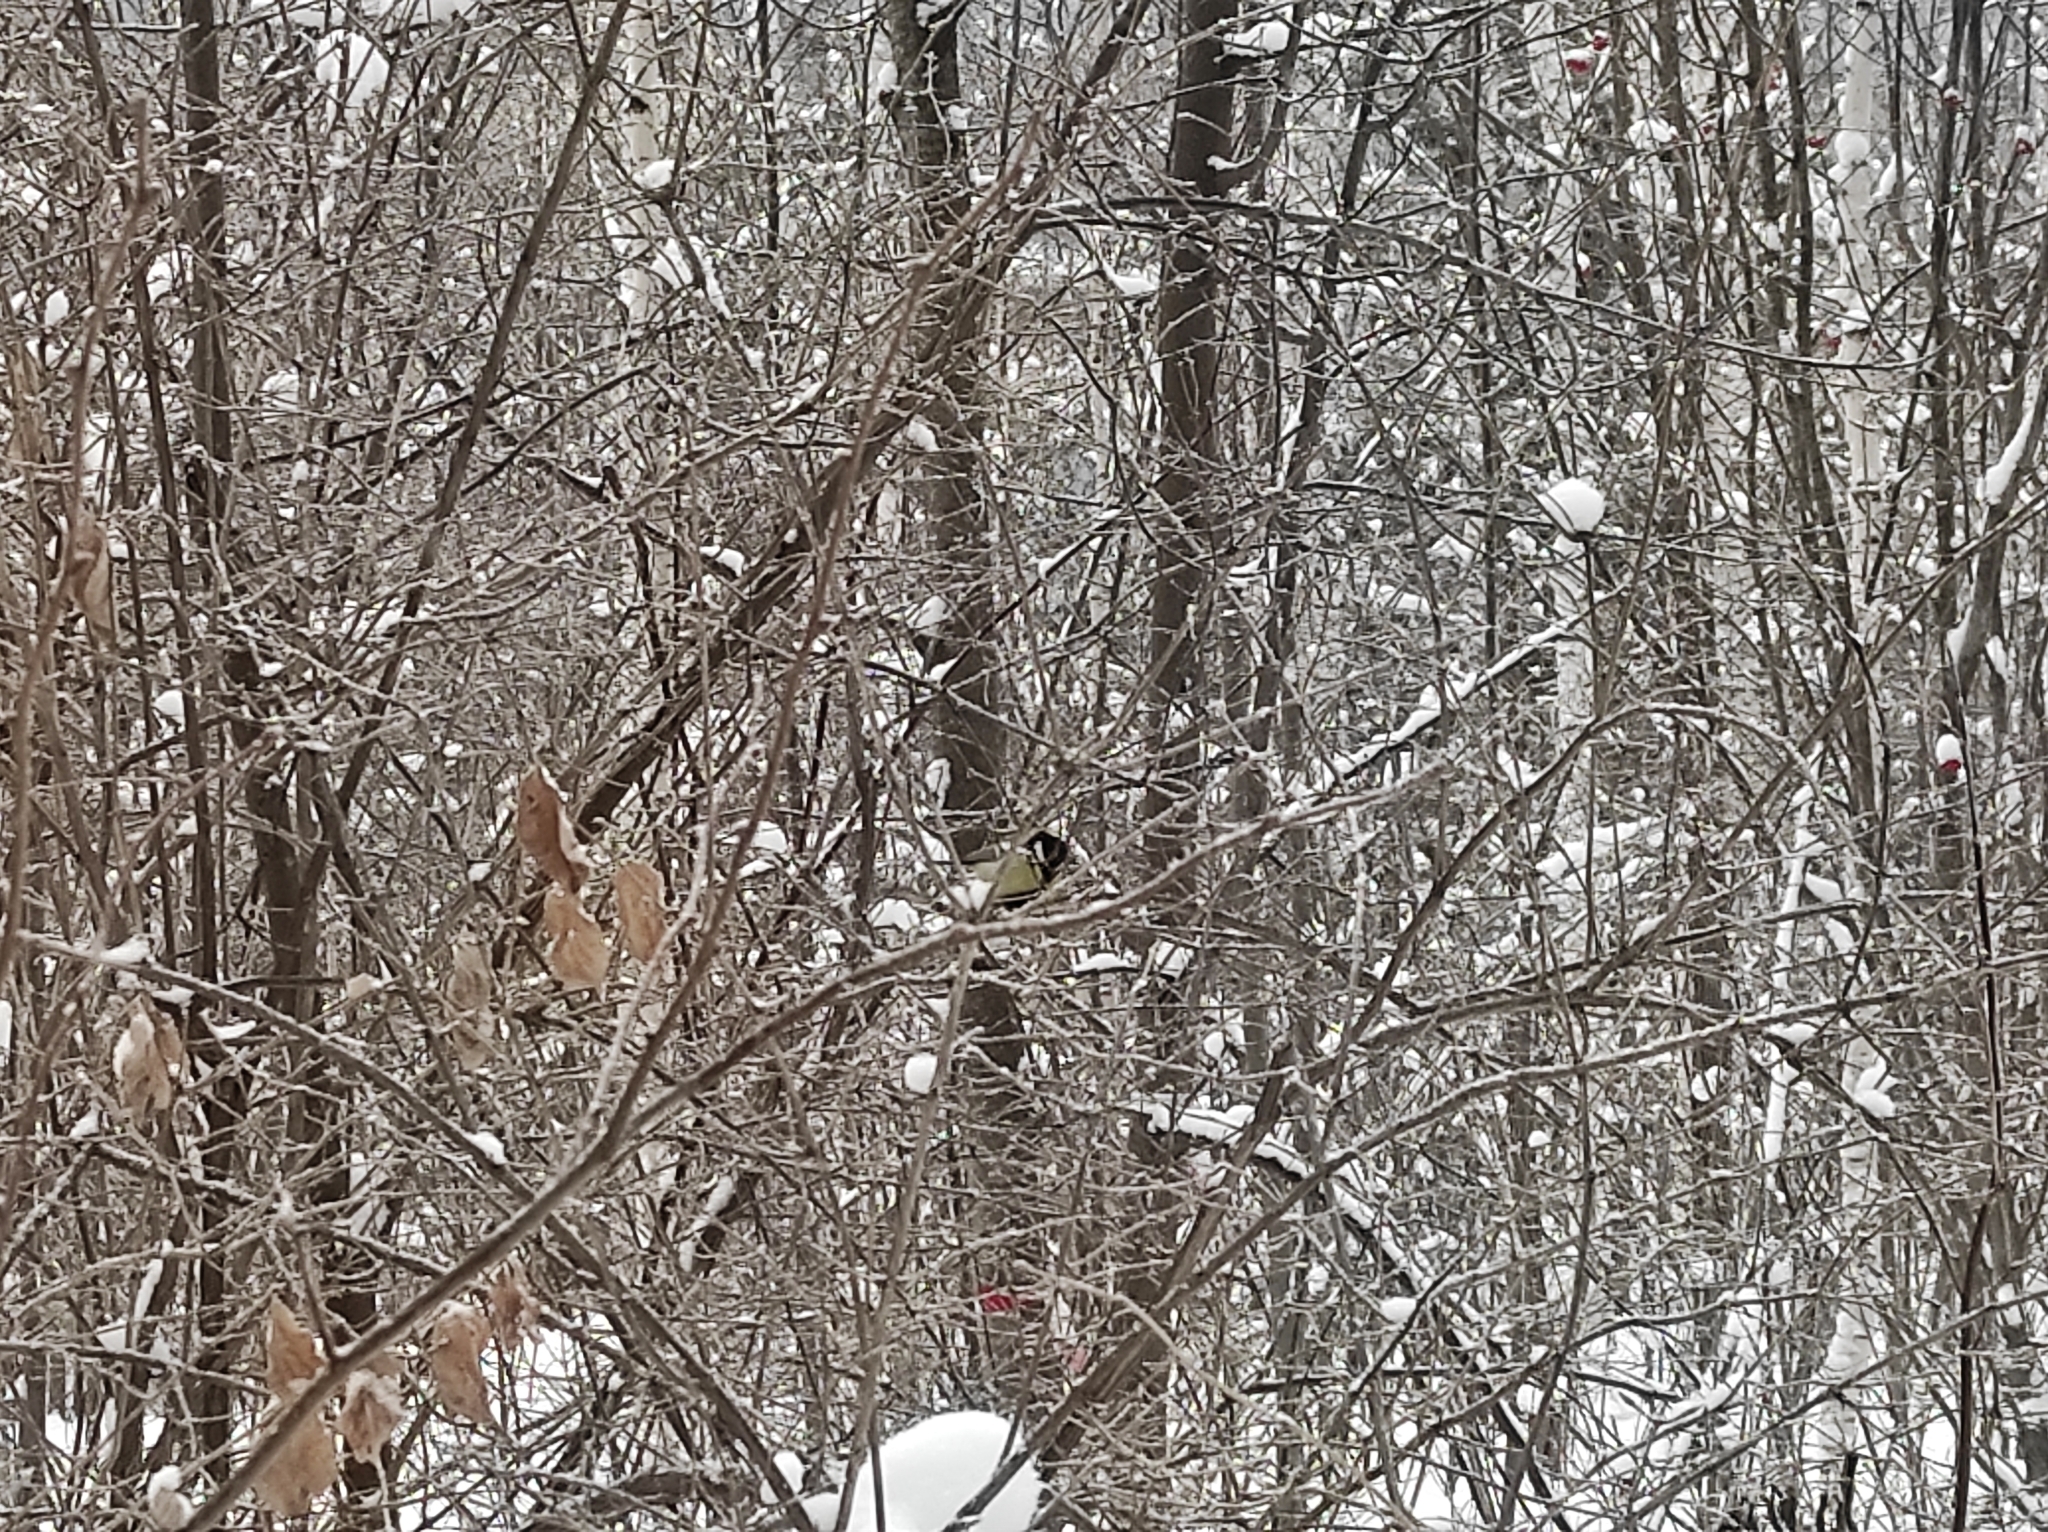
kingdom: Animalia
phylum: Chordata
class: Aves
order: Passeriformes
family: Paridae
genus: Parus
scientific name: Parus major
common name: Great tit
